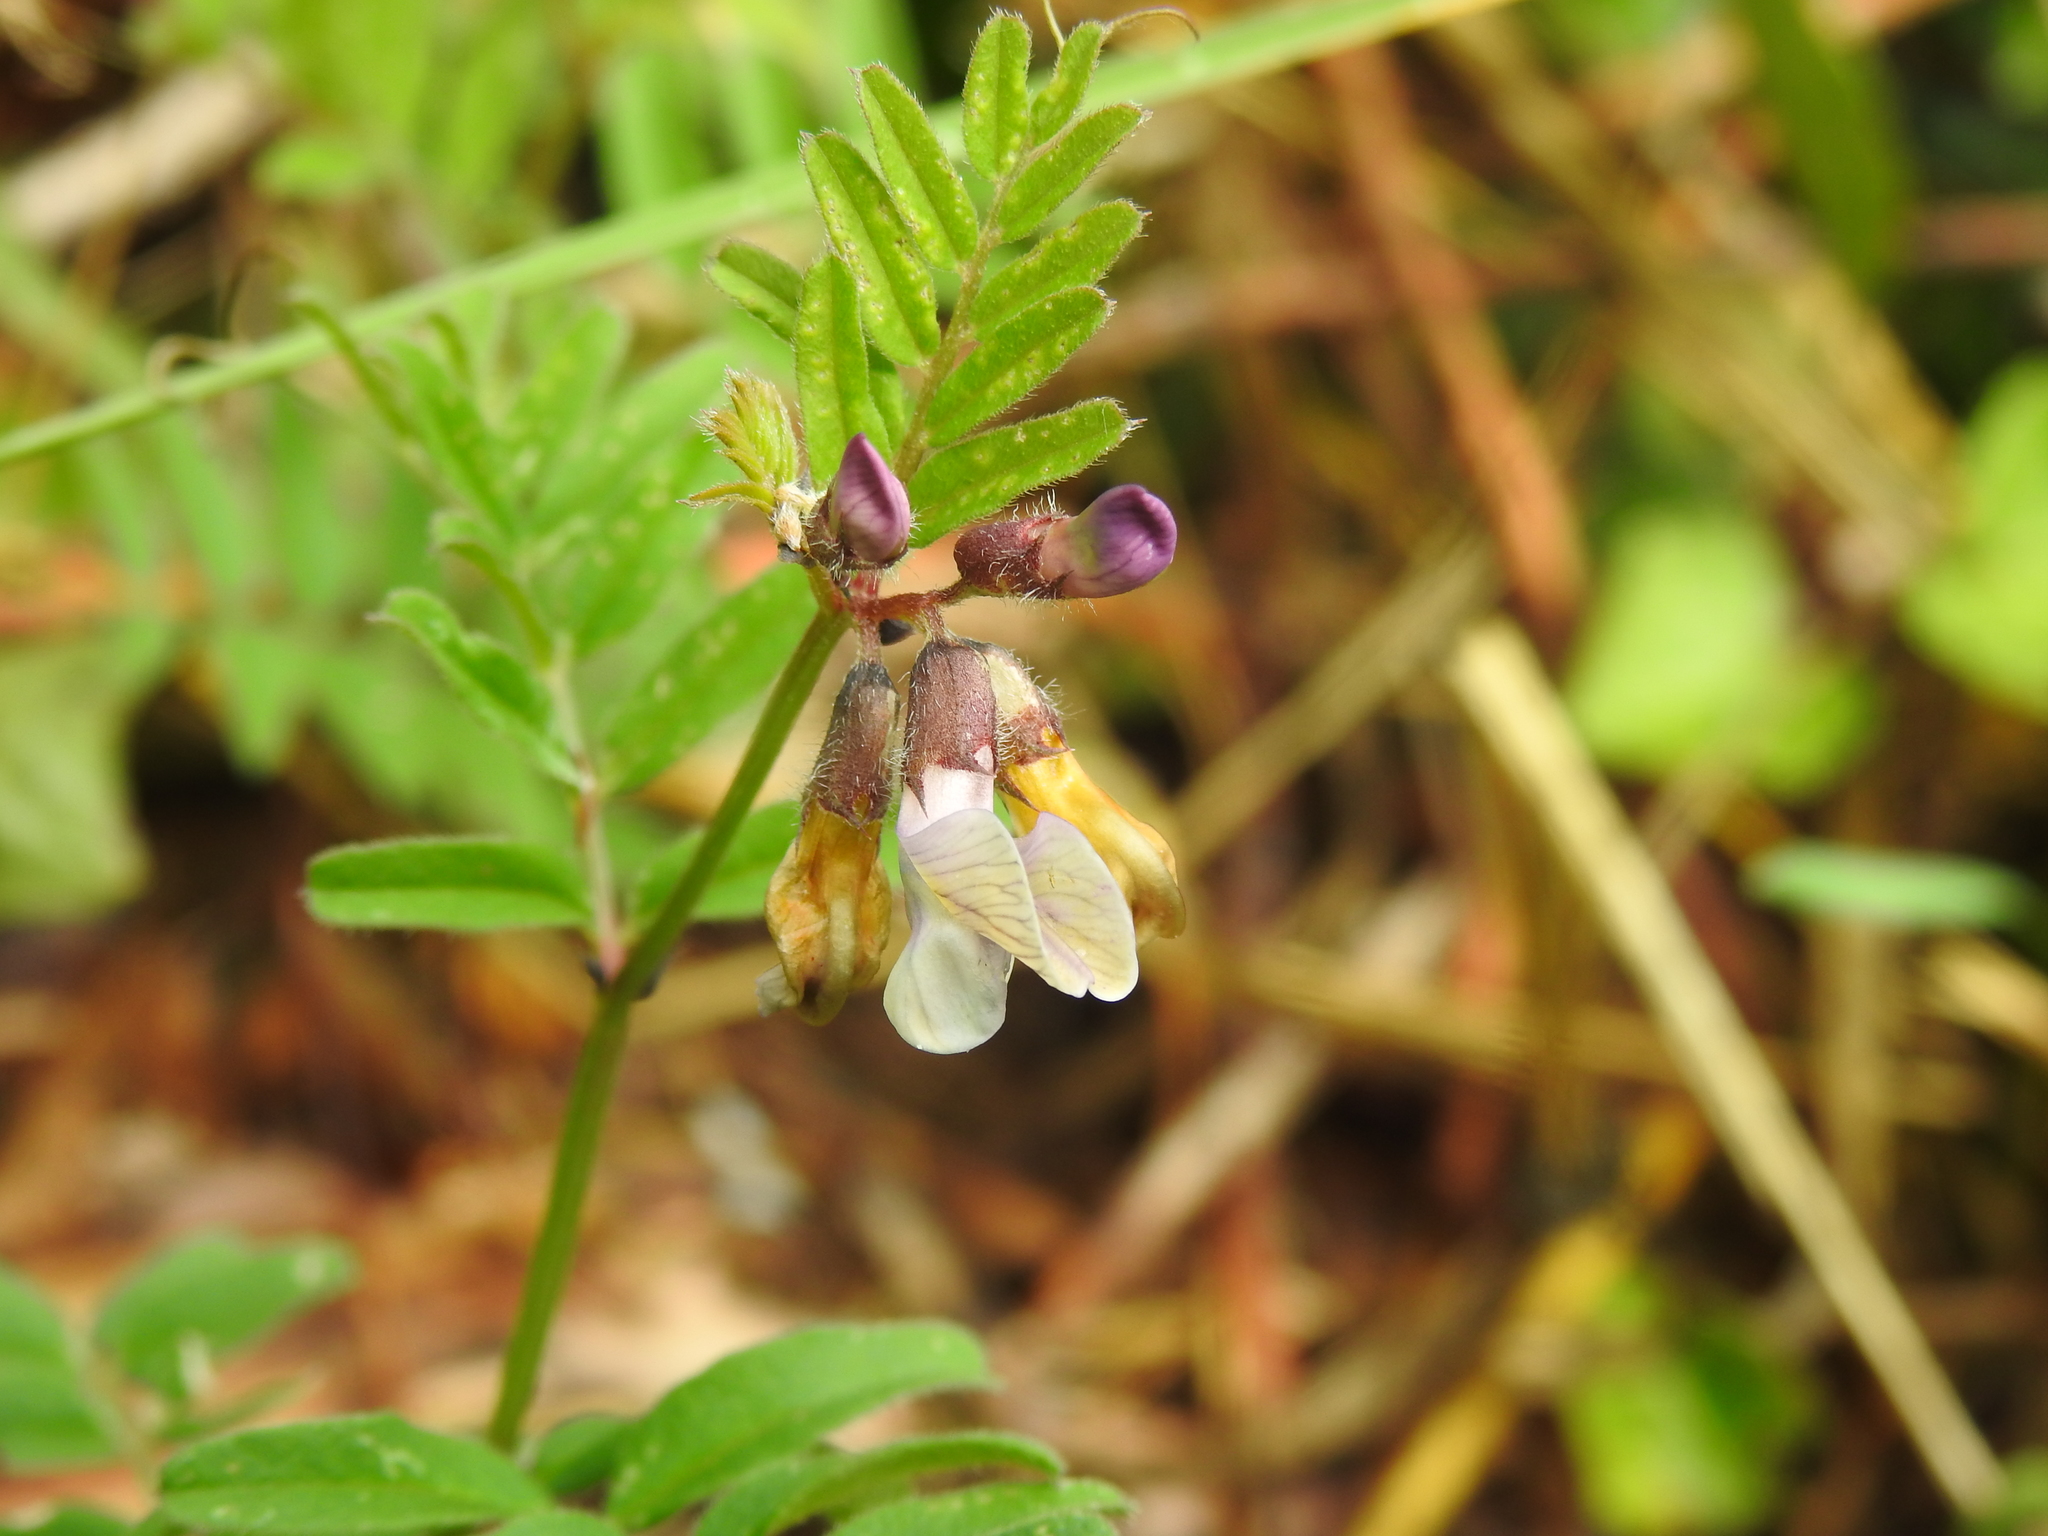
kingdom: Plantae
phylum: Tracheophyta
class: Magnoliopsida
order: Fabales
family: Fabaceae
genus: Vicia
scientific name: Vicia sepium
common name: Bush vetch
